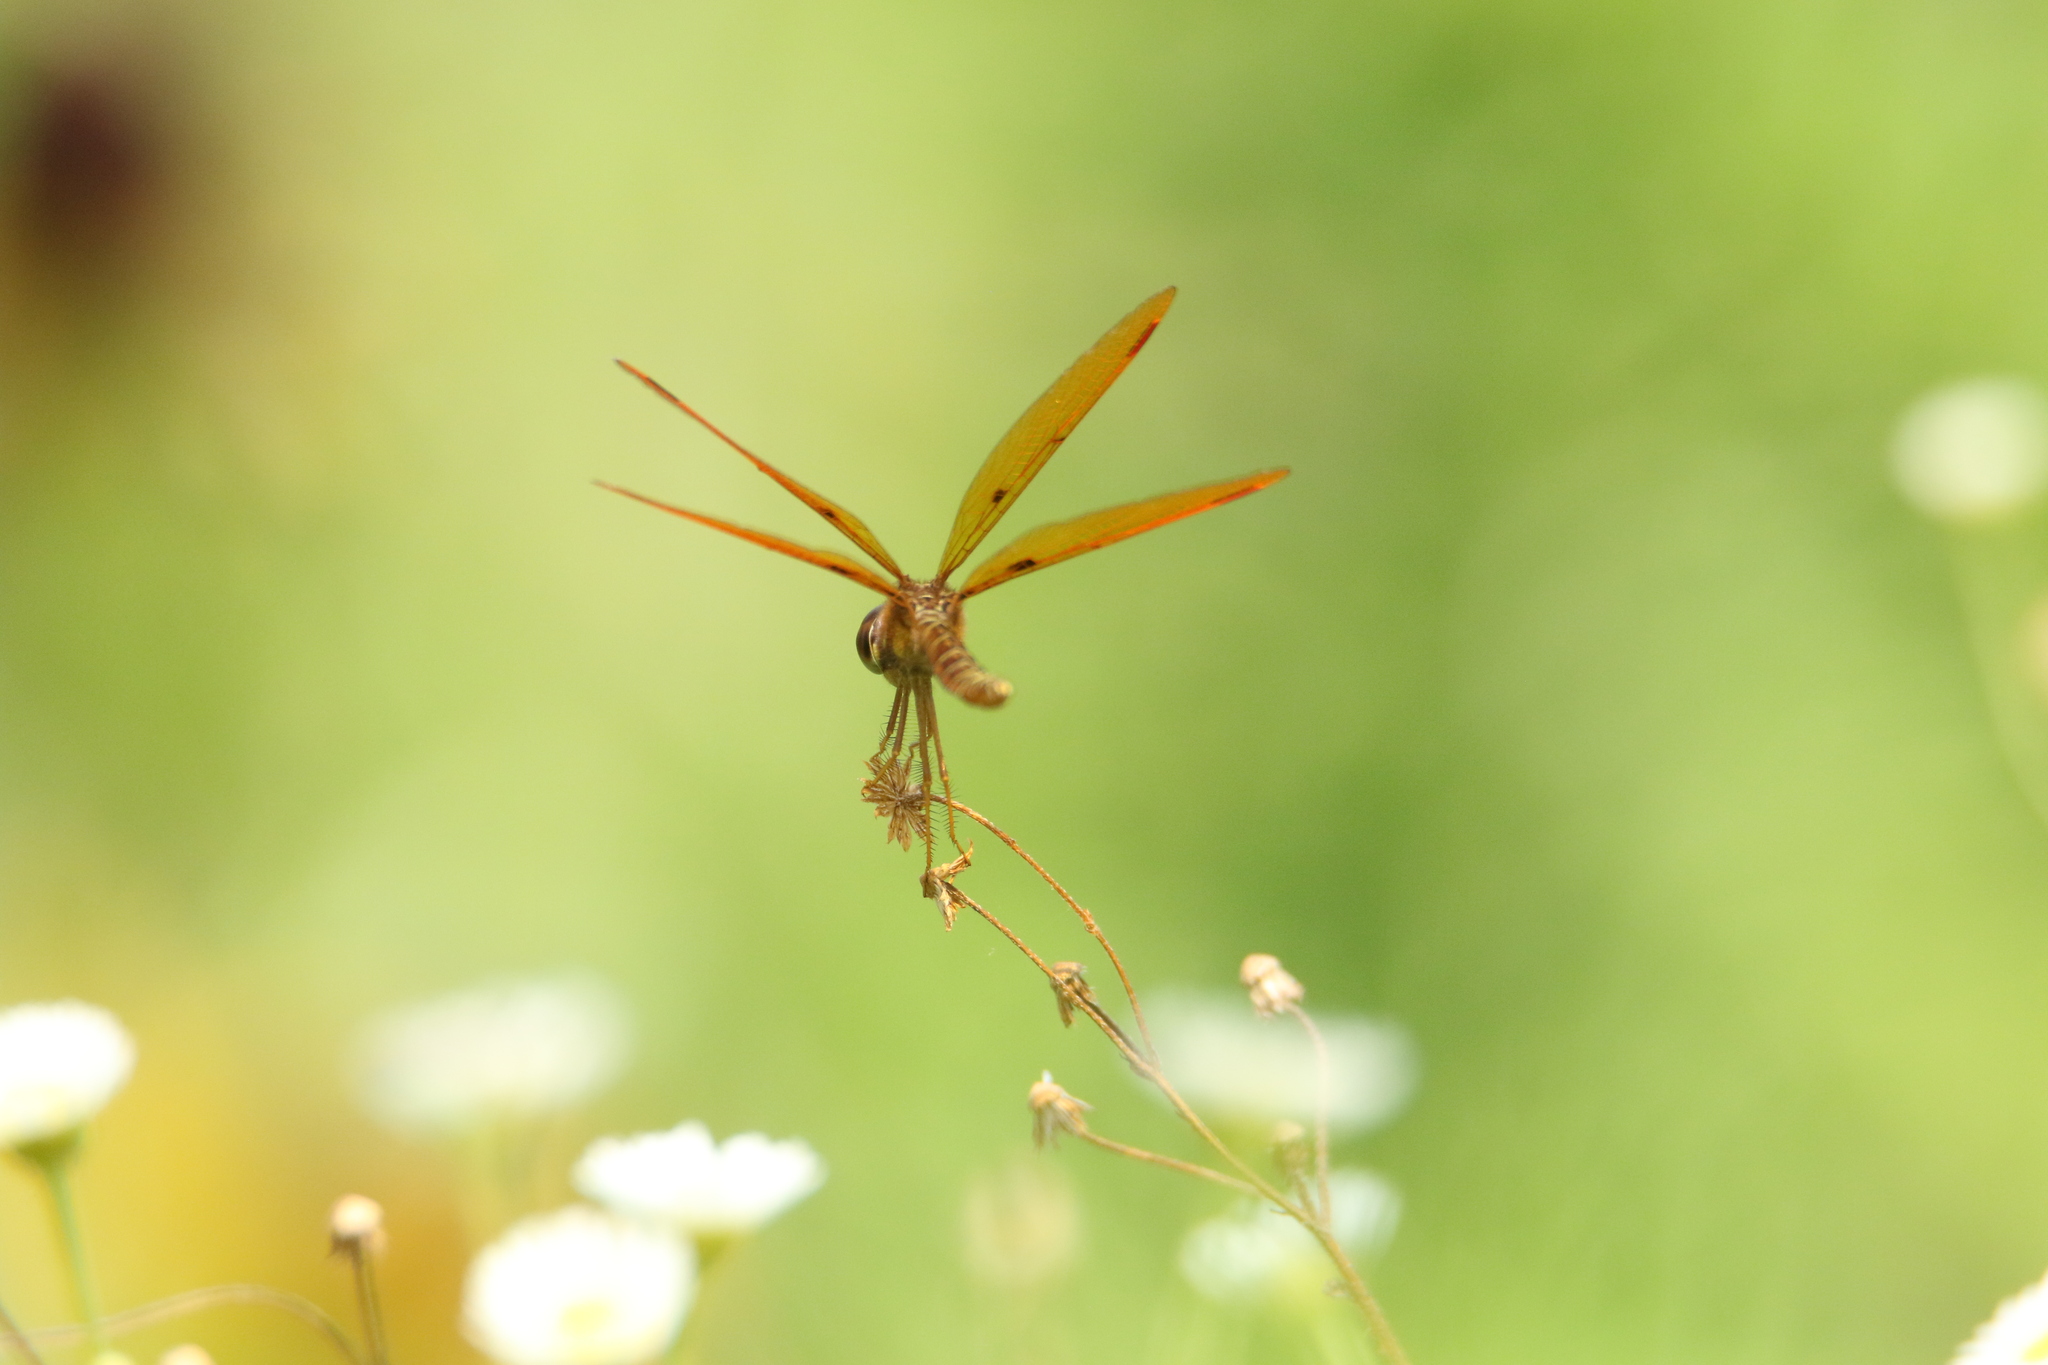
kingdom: Animalia
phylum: Arthropoda
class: Insecta
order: Odonata
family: Libellulidae
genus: Perithemis
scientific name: Perithemis tenera
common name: Eastern amberwing
